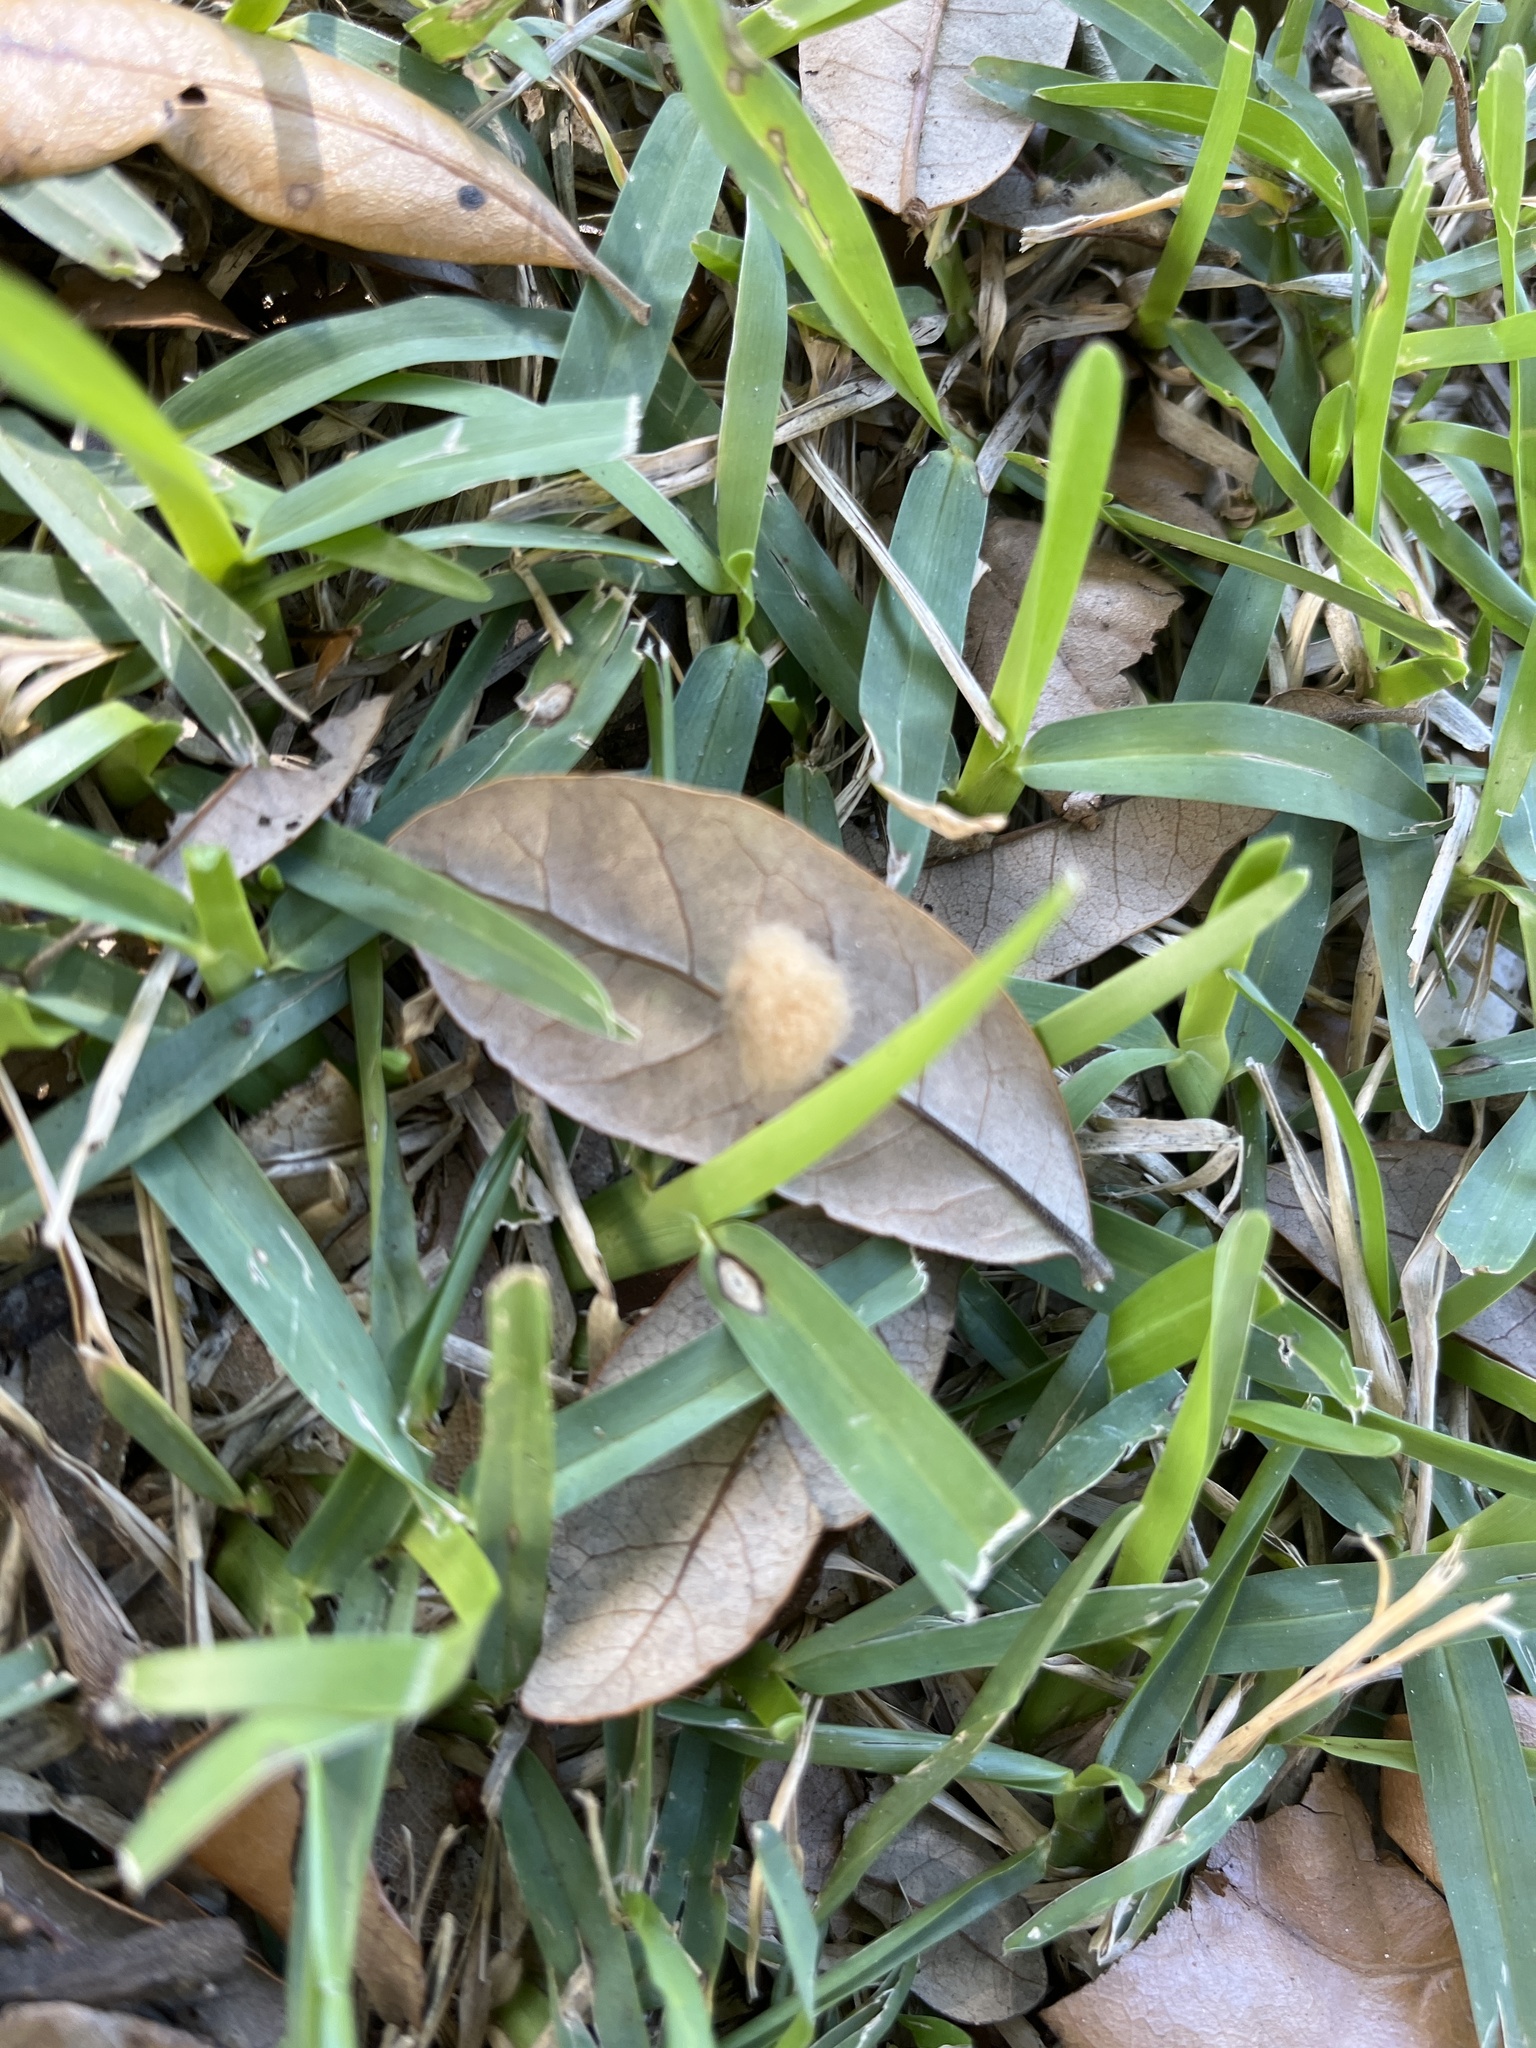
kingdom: Animalia
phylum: Arthropoda
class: Insecta
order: Hymenoptera
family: Cynipidae
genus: Andricus
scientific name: Andricus Druon quercuslanigerum
